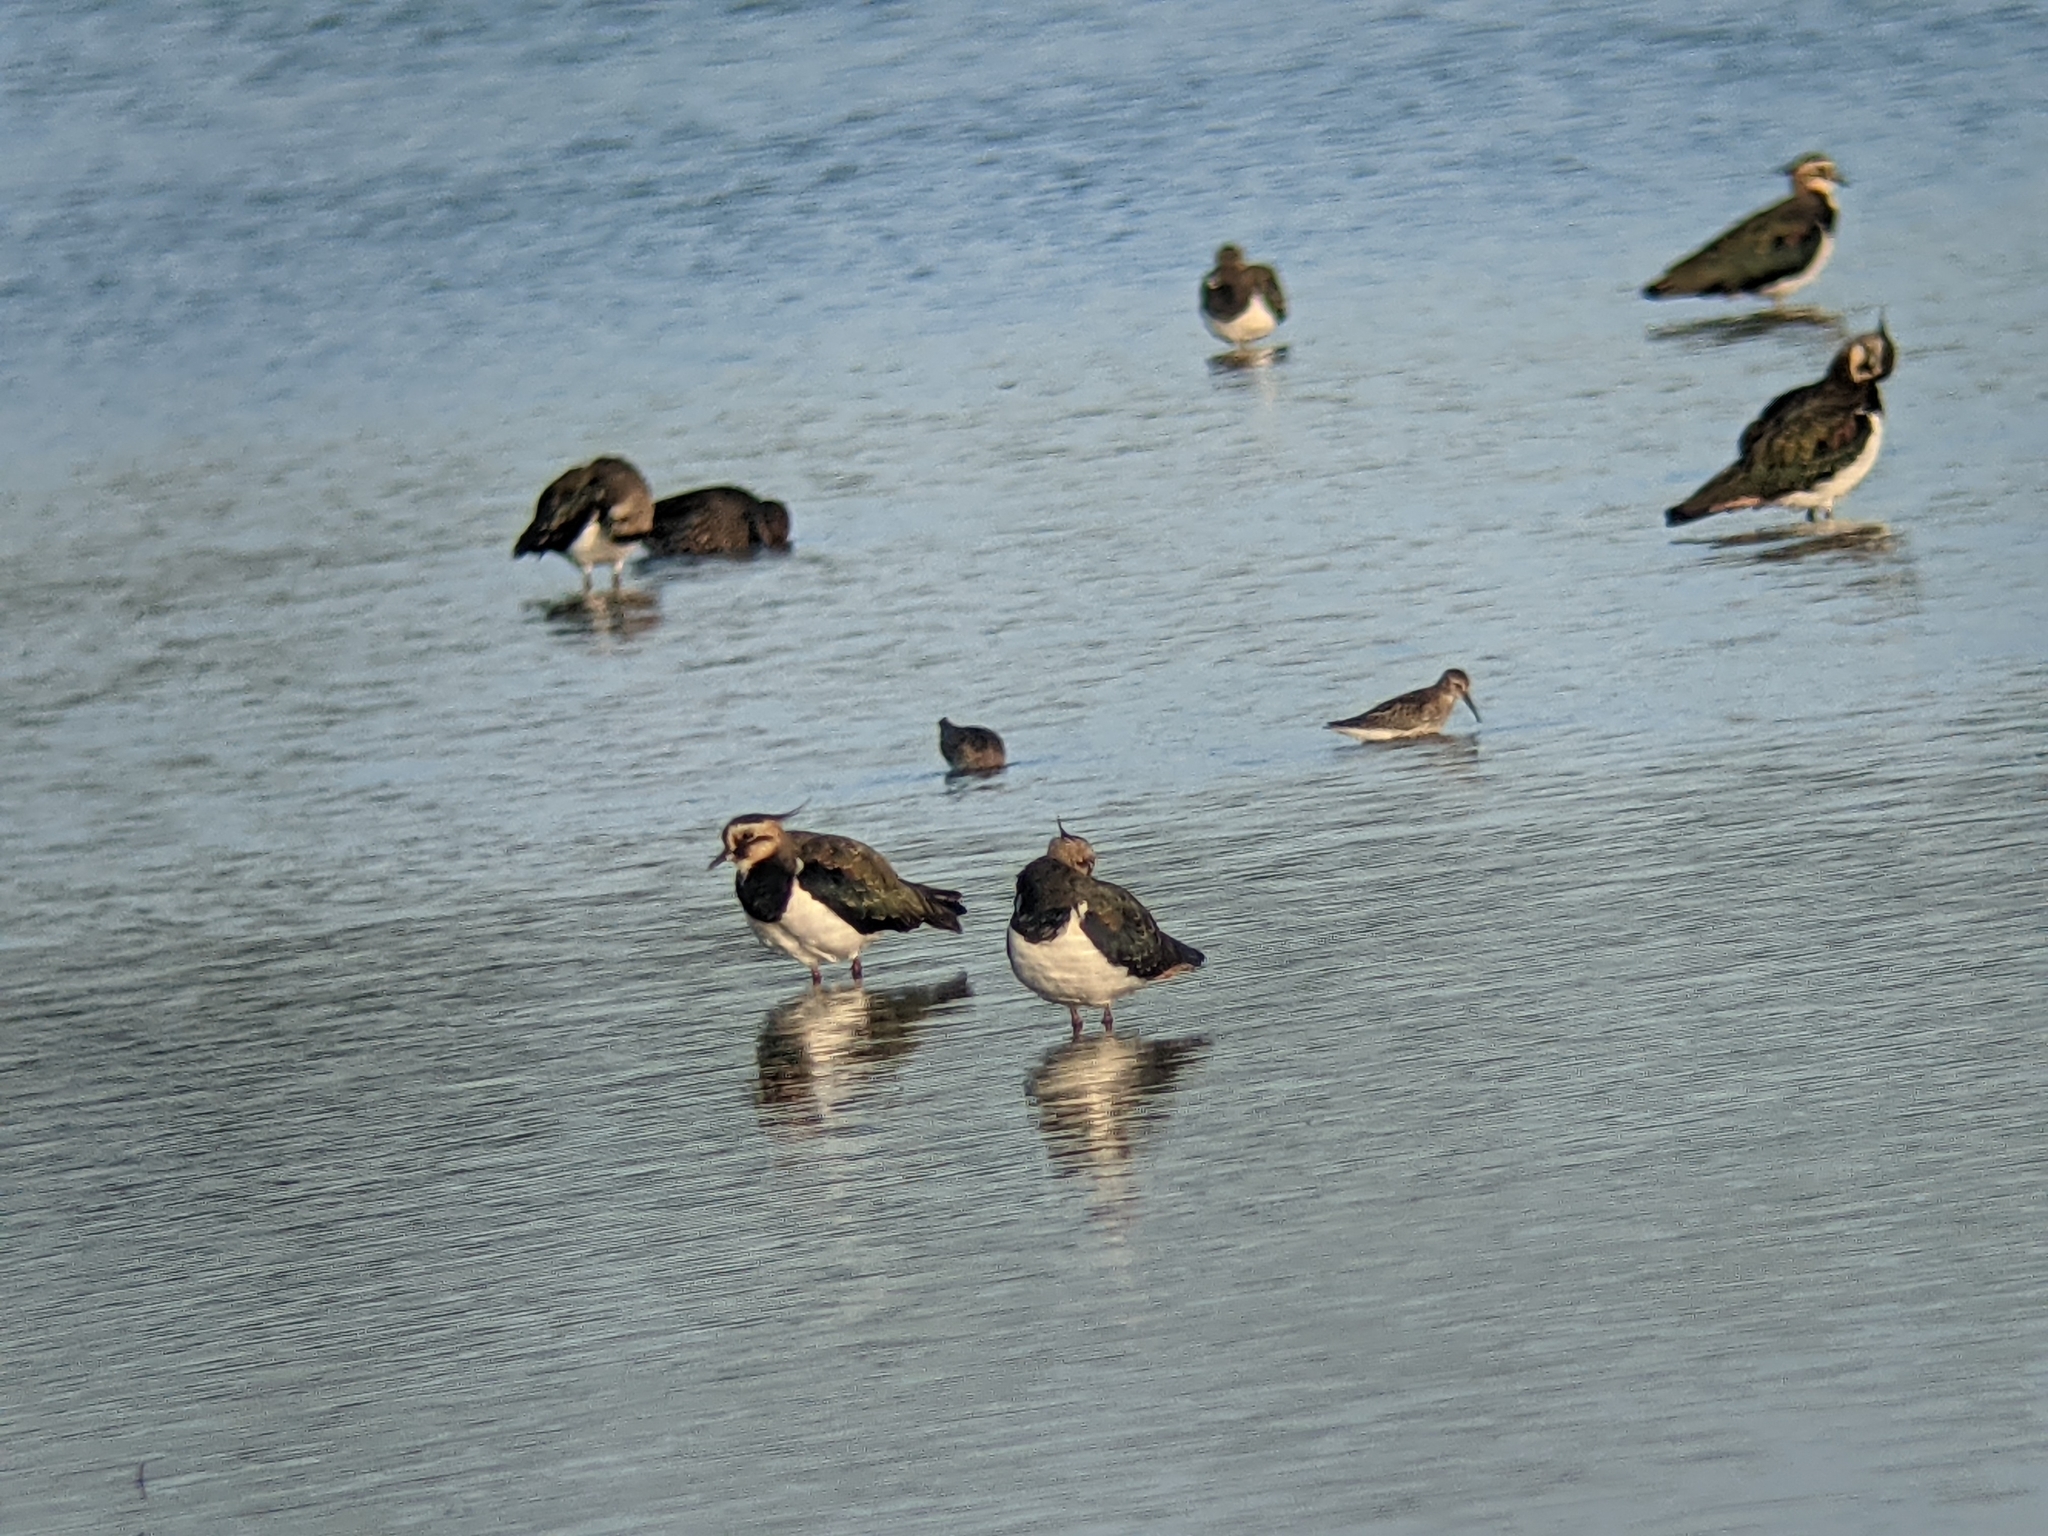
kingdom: Animalia
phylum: Chordata
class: Aves
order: Charadriiformes
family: Charadriidae
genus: Vanellus
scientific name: Vanellus vanellus
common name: Northern lapwing
